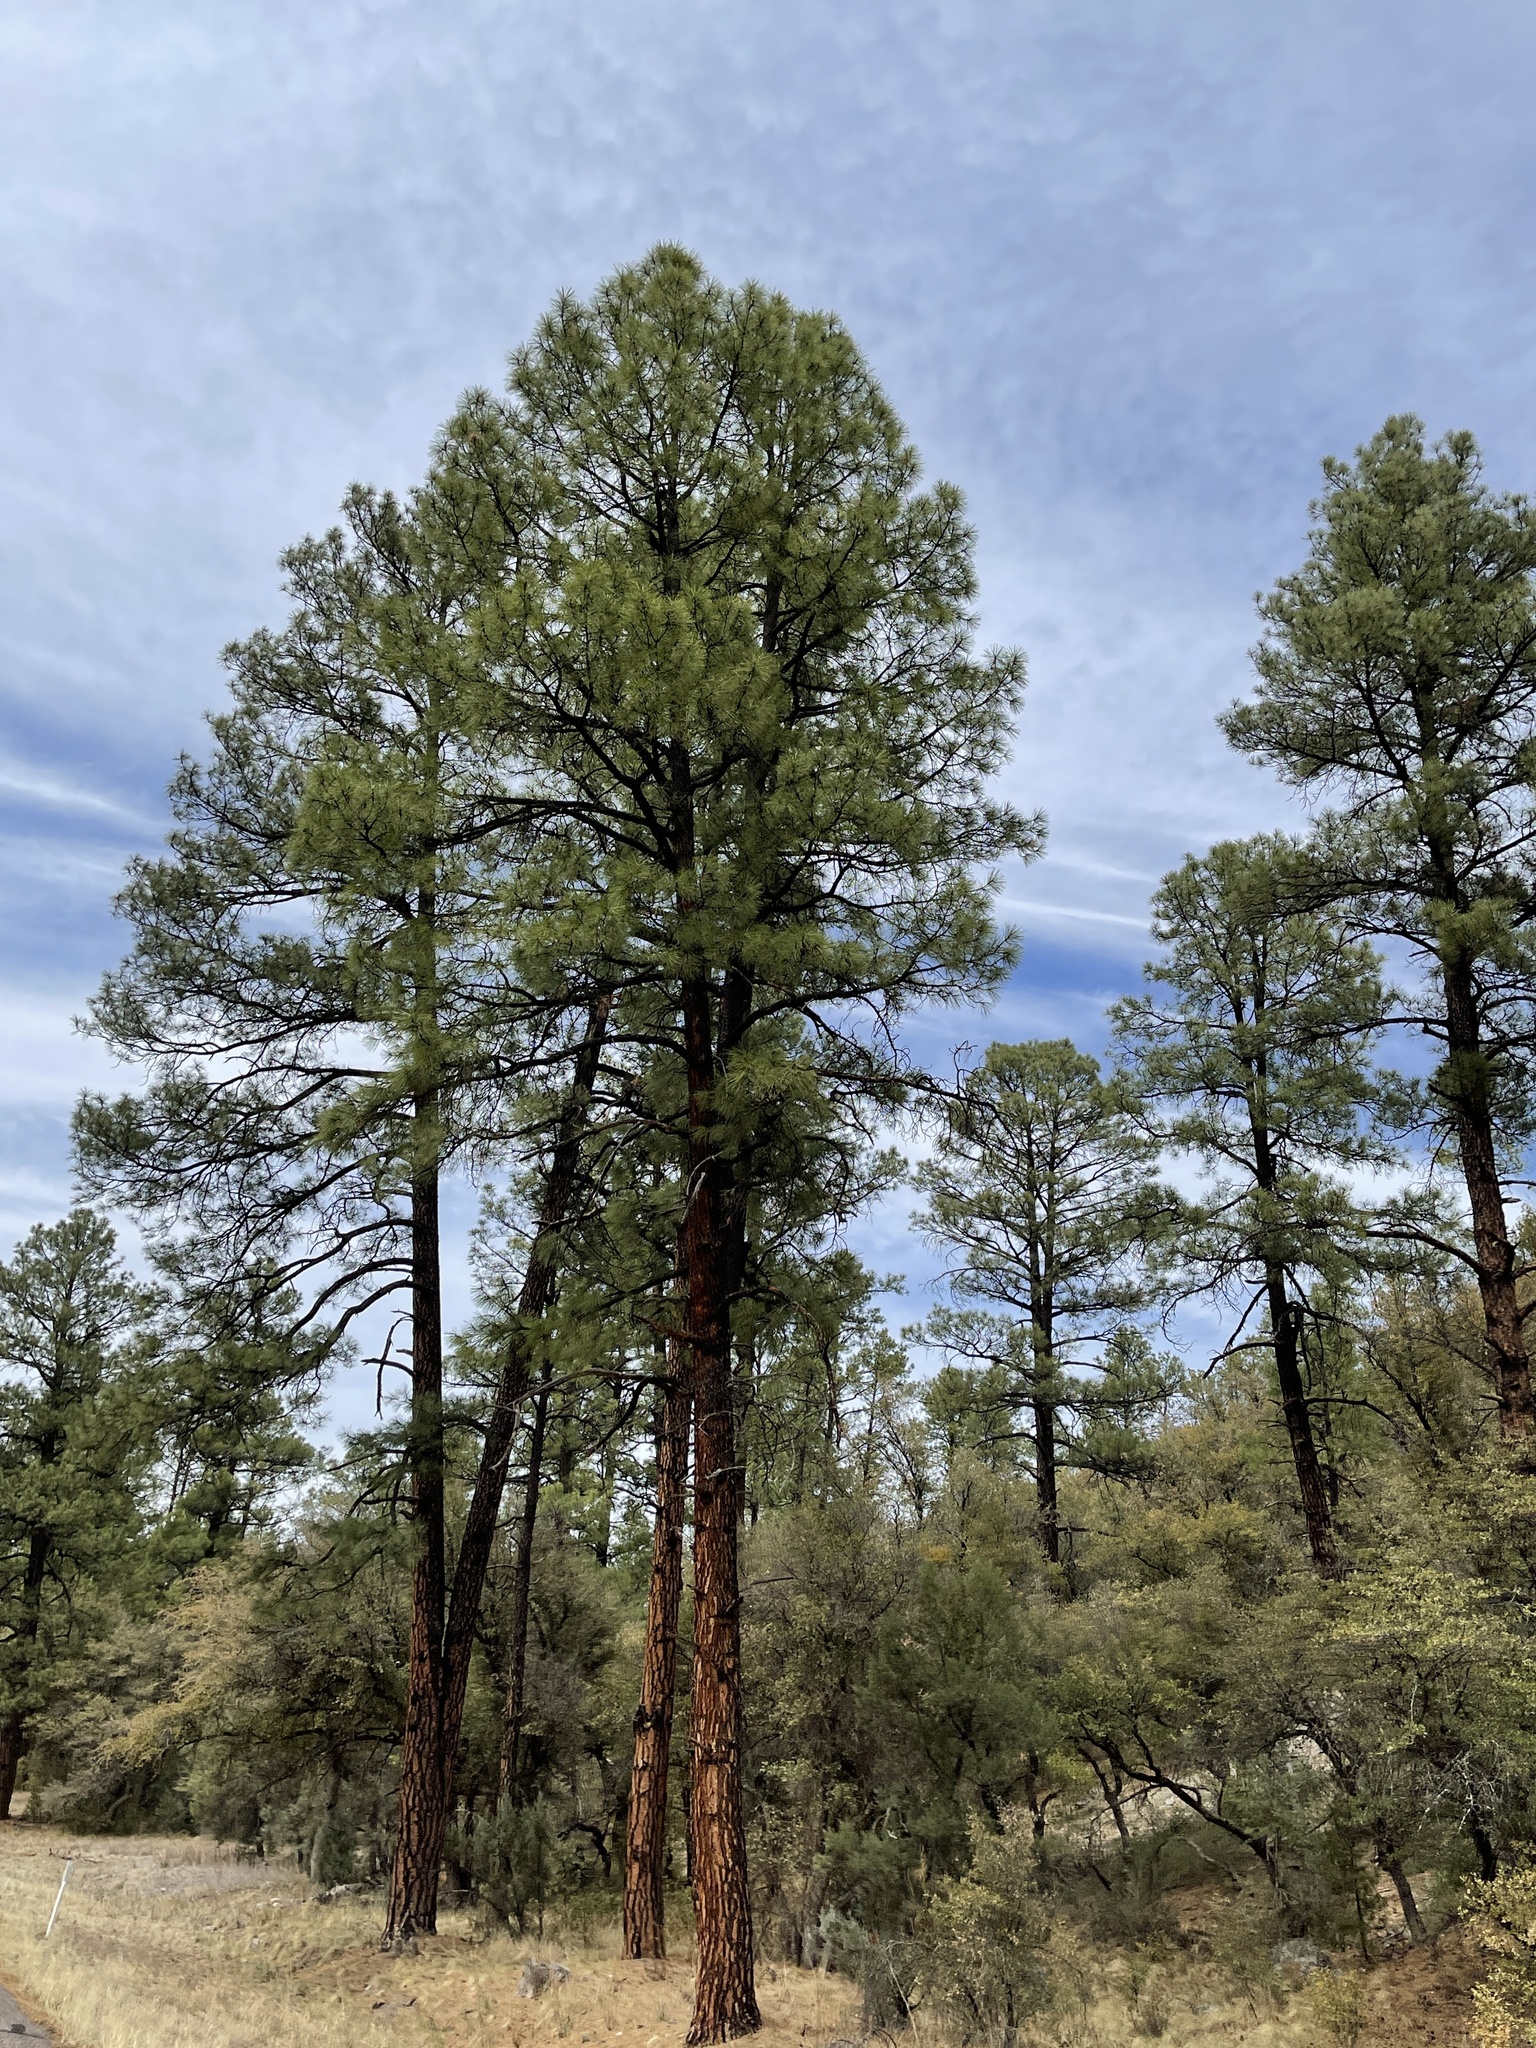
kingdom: Plantae
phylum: Tracheophyta
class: Pinopsida
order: Pinales
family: Pinaceae
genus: Pinus
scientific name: Pinus ponderosa
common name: Western yellow-pine
